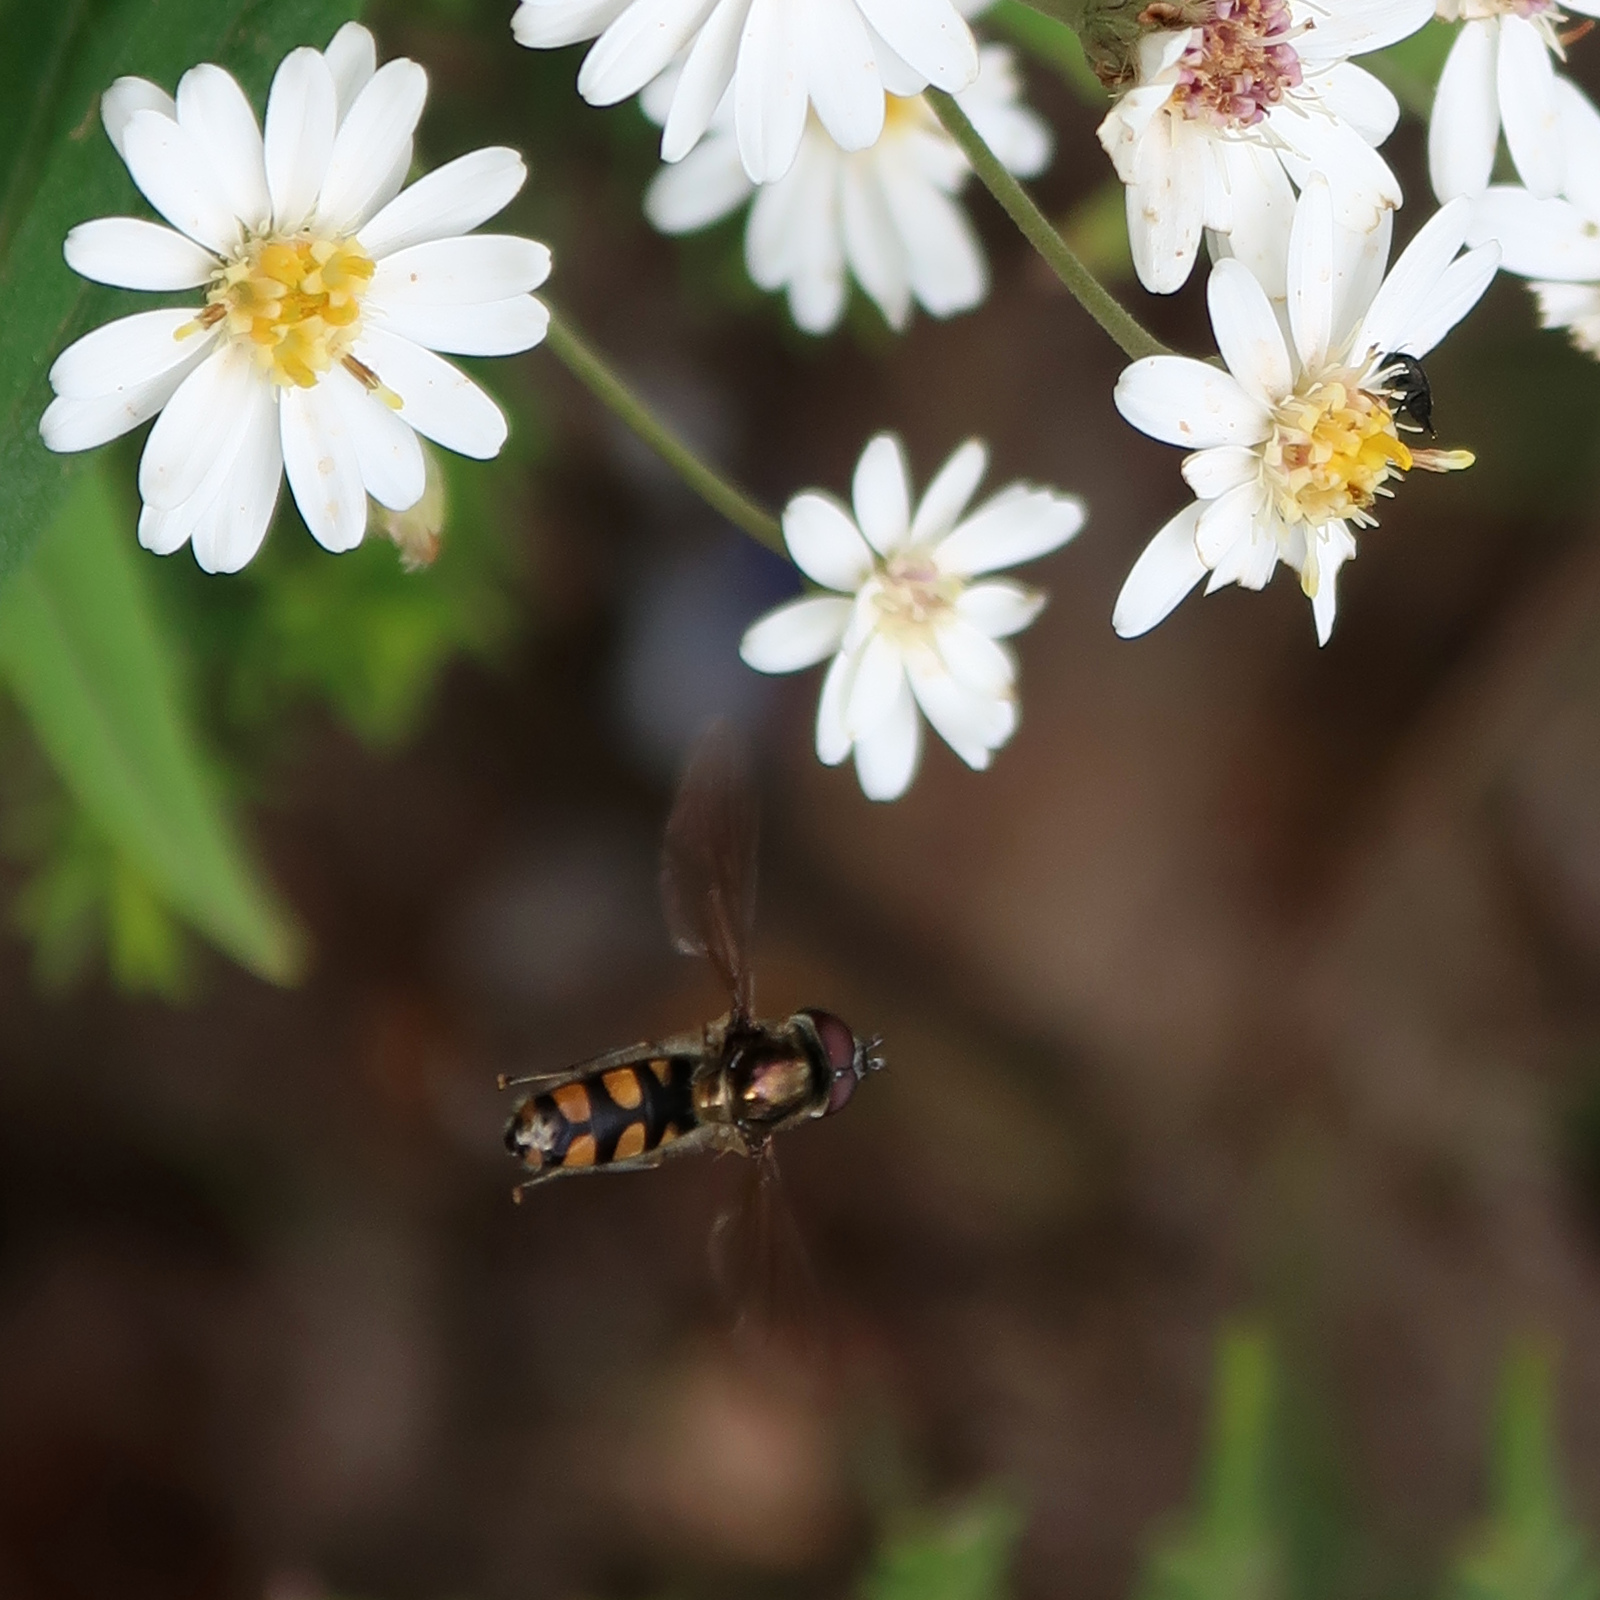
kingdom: Animalia
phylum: Arthropoda
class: Insecta
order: Diptera
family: Syrphidae
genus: Melangyna
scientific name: Melangyna viridiceps
